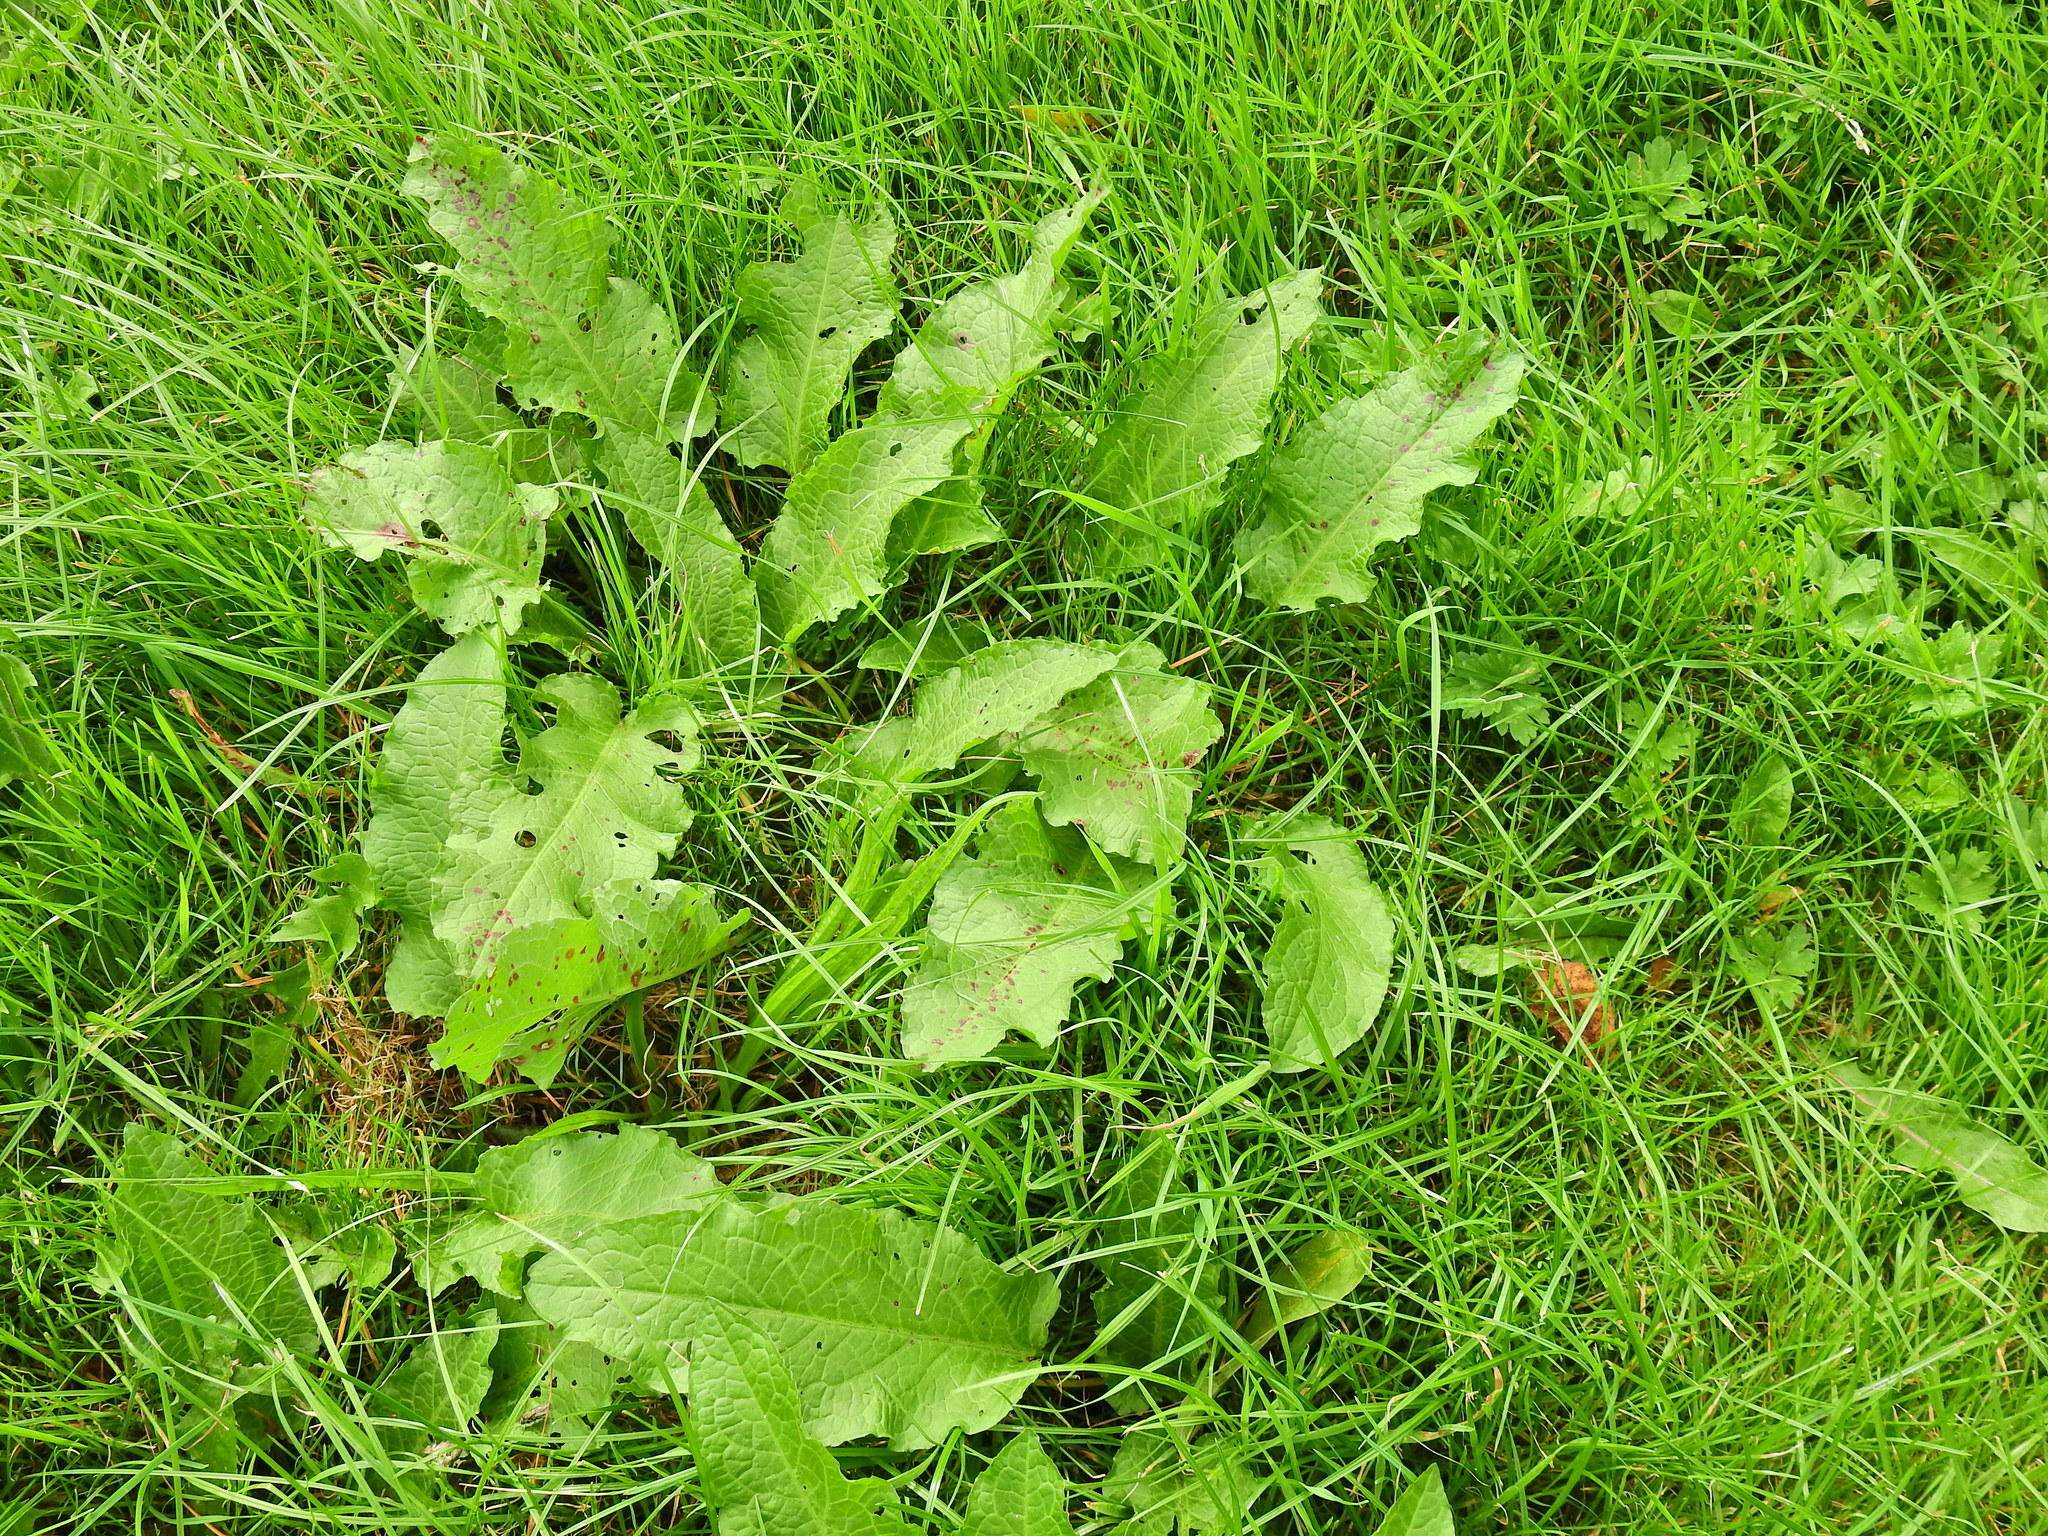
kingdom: Plantae
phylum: Tracheophyta
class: Magnoliopsida
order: Caryophyllales
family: Polygonaceae
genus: Rumex
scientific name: Rumex obtusifolius
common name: Bitter dock
